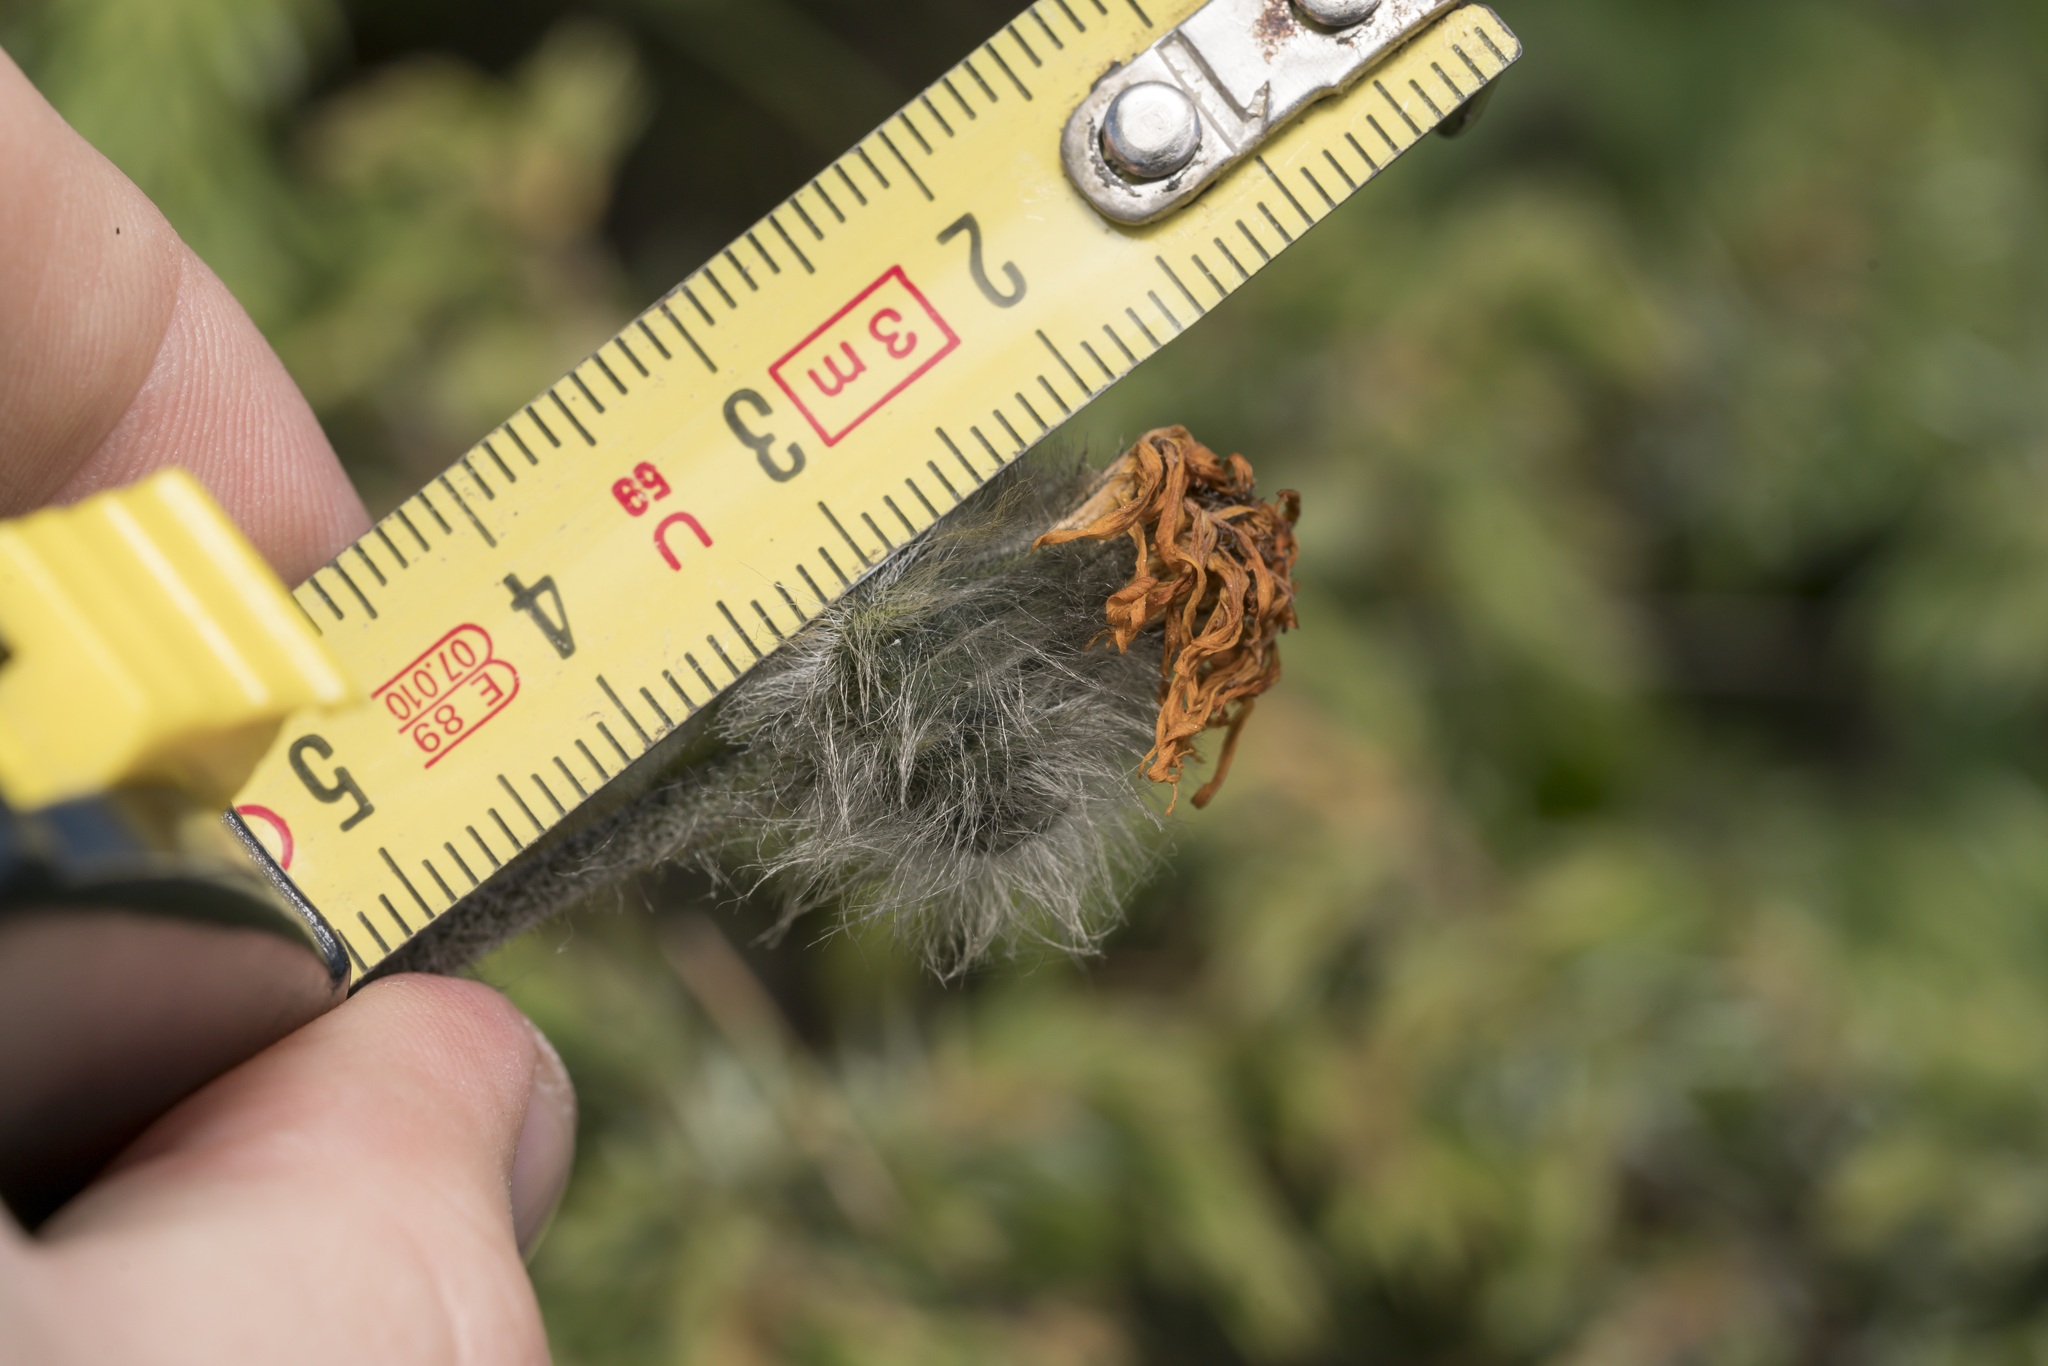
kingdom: Plantae
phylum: Tracheophyta
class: Magnoliopsida
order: Asterales
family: Asteraceae
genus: Hieracium
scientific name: Hieracium piliferum
